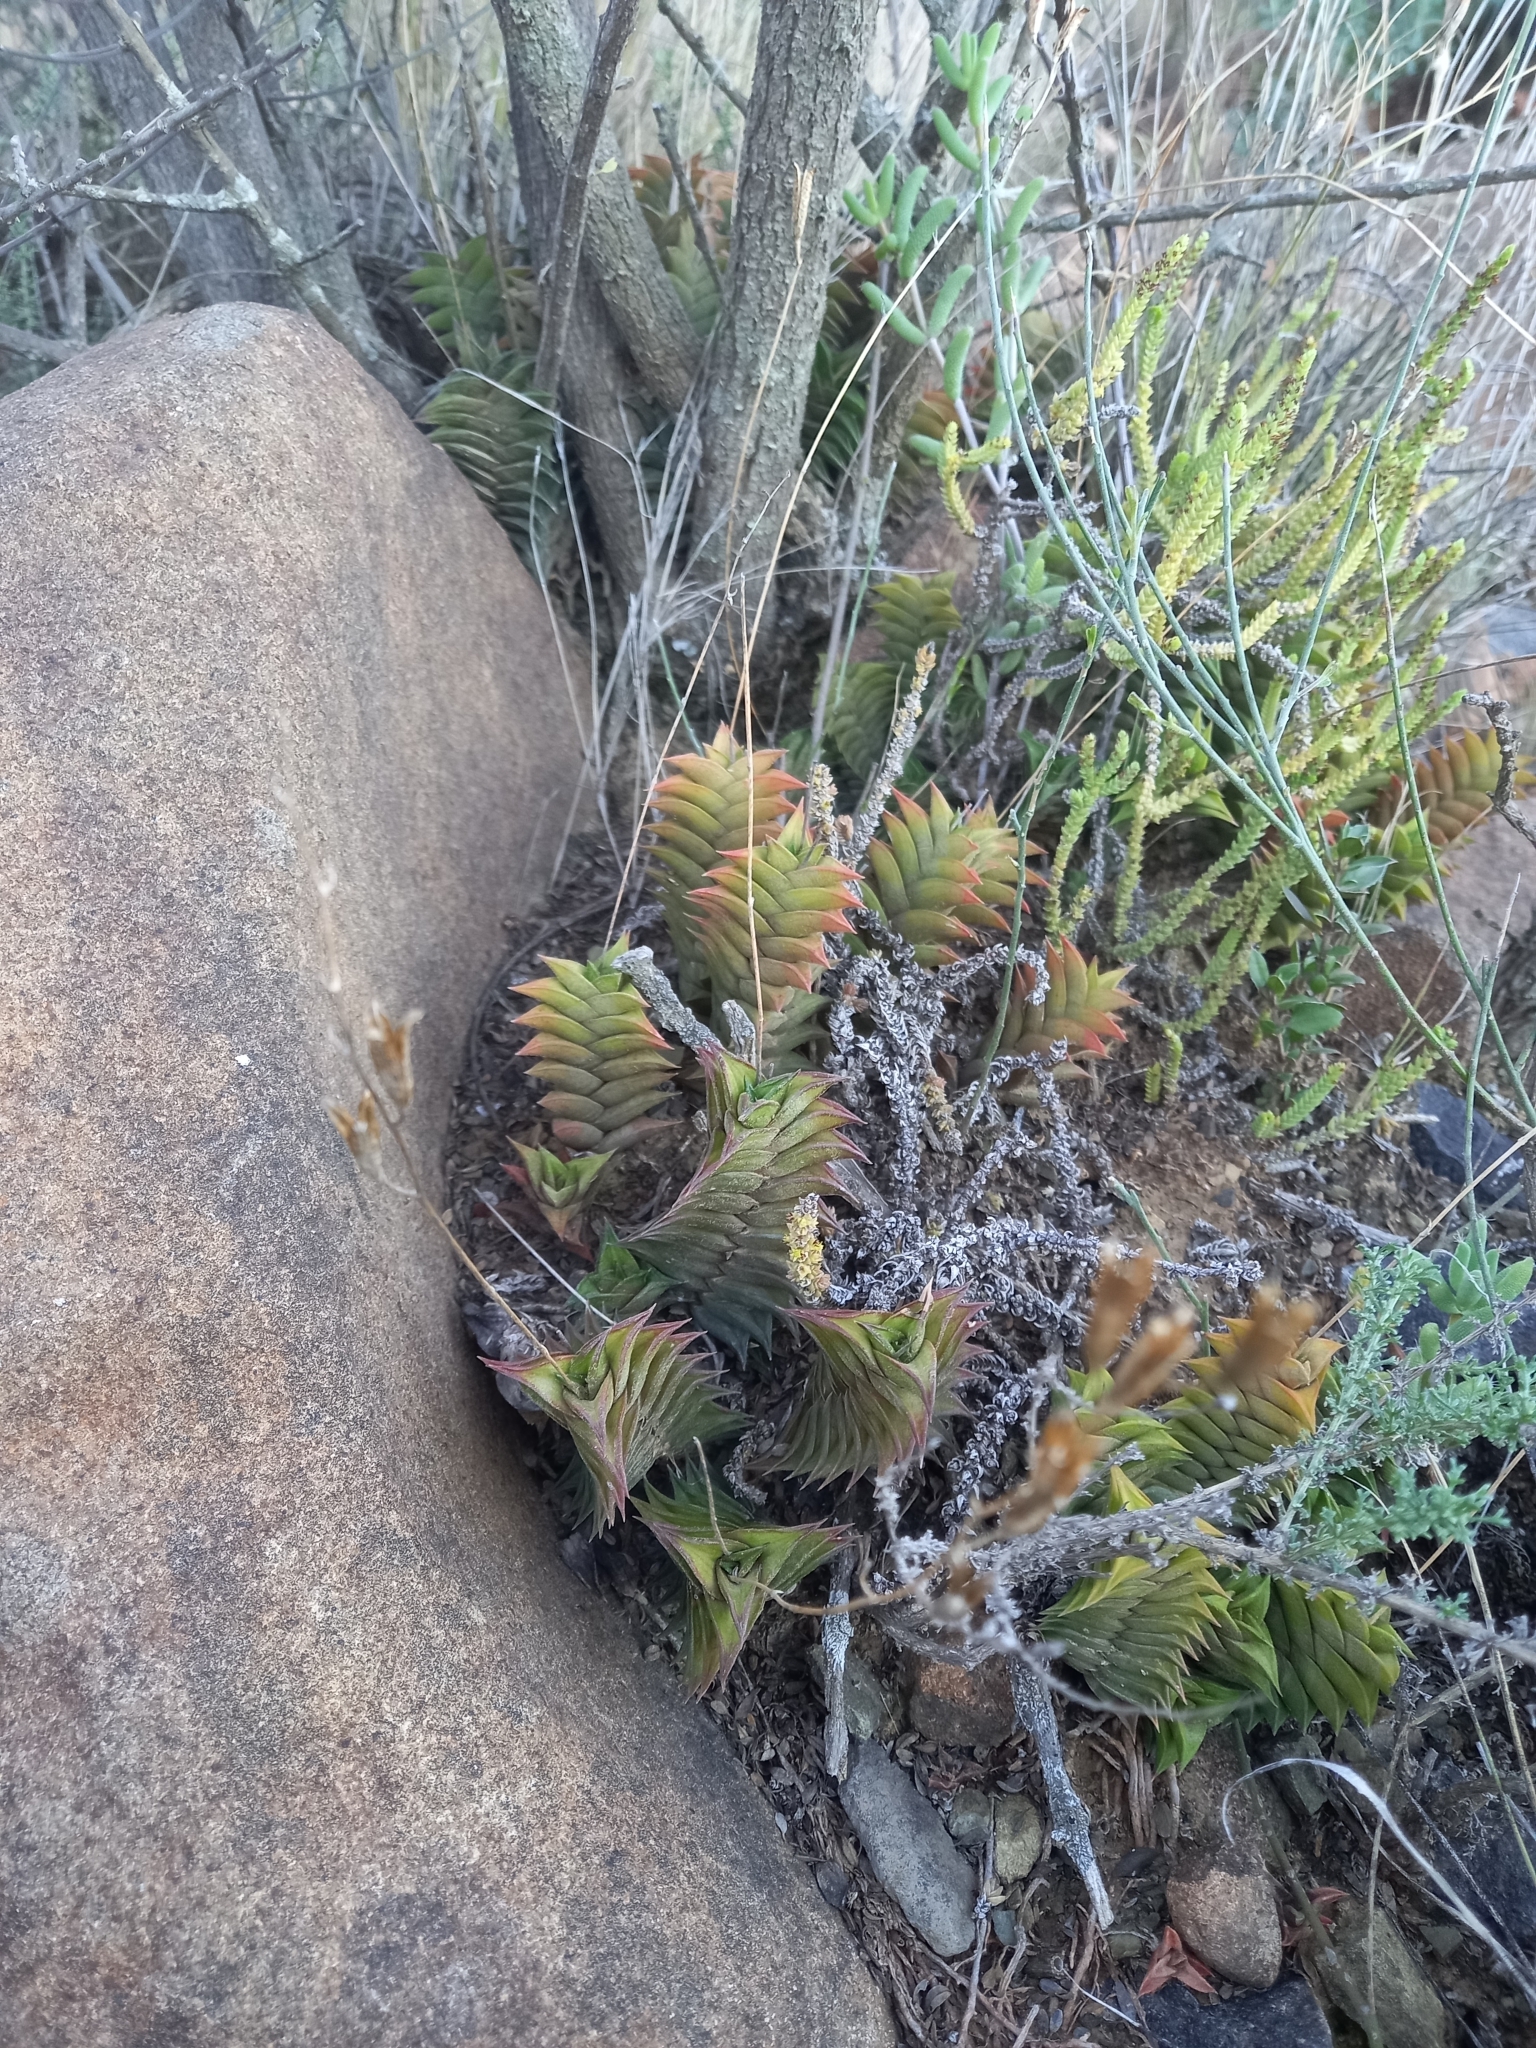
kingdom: Plantae
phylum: Tracheophyta
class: Liliopsida
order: Asparagales
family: Asphodelaceae
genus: Haworthiopsis
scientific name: Haworthiopsis viscosa
